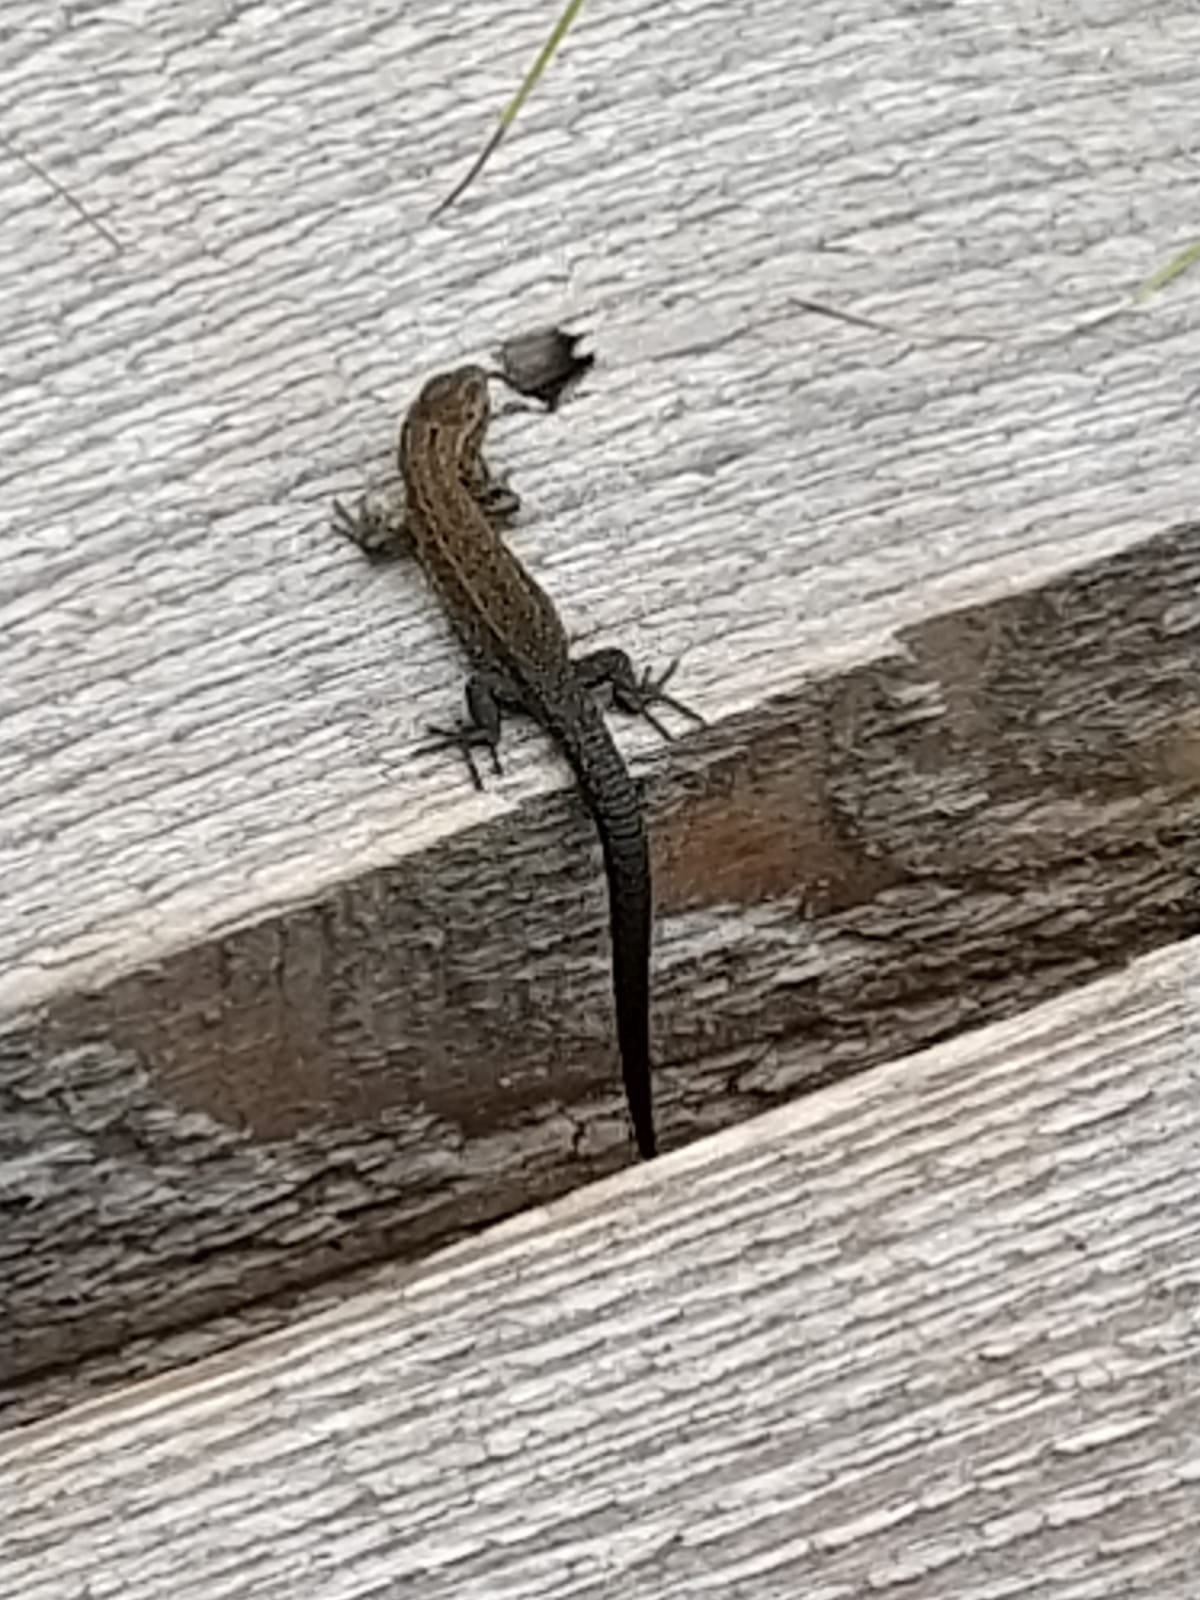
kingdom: Animalia
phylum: Chordata
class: Squamata
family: Lacertidae
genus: Zootoca
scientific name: Zootoca vivipara
